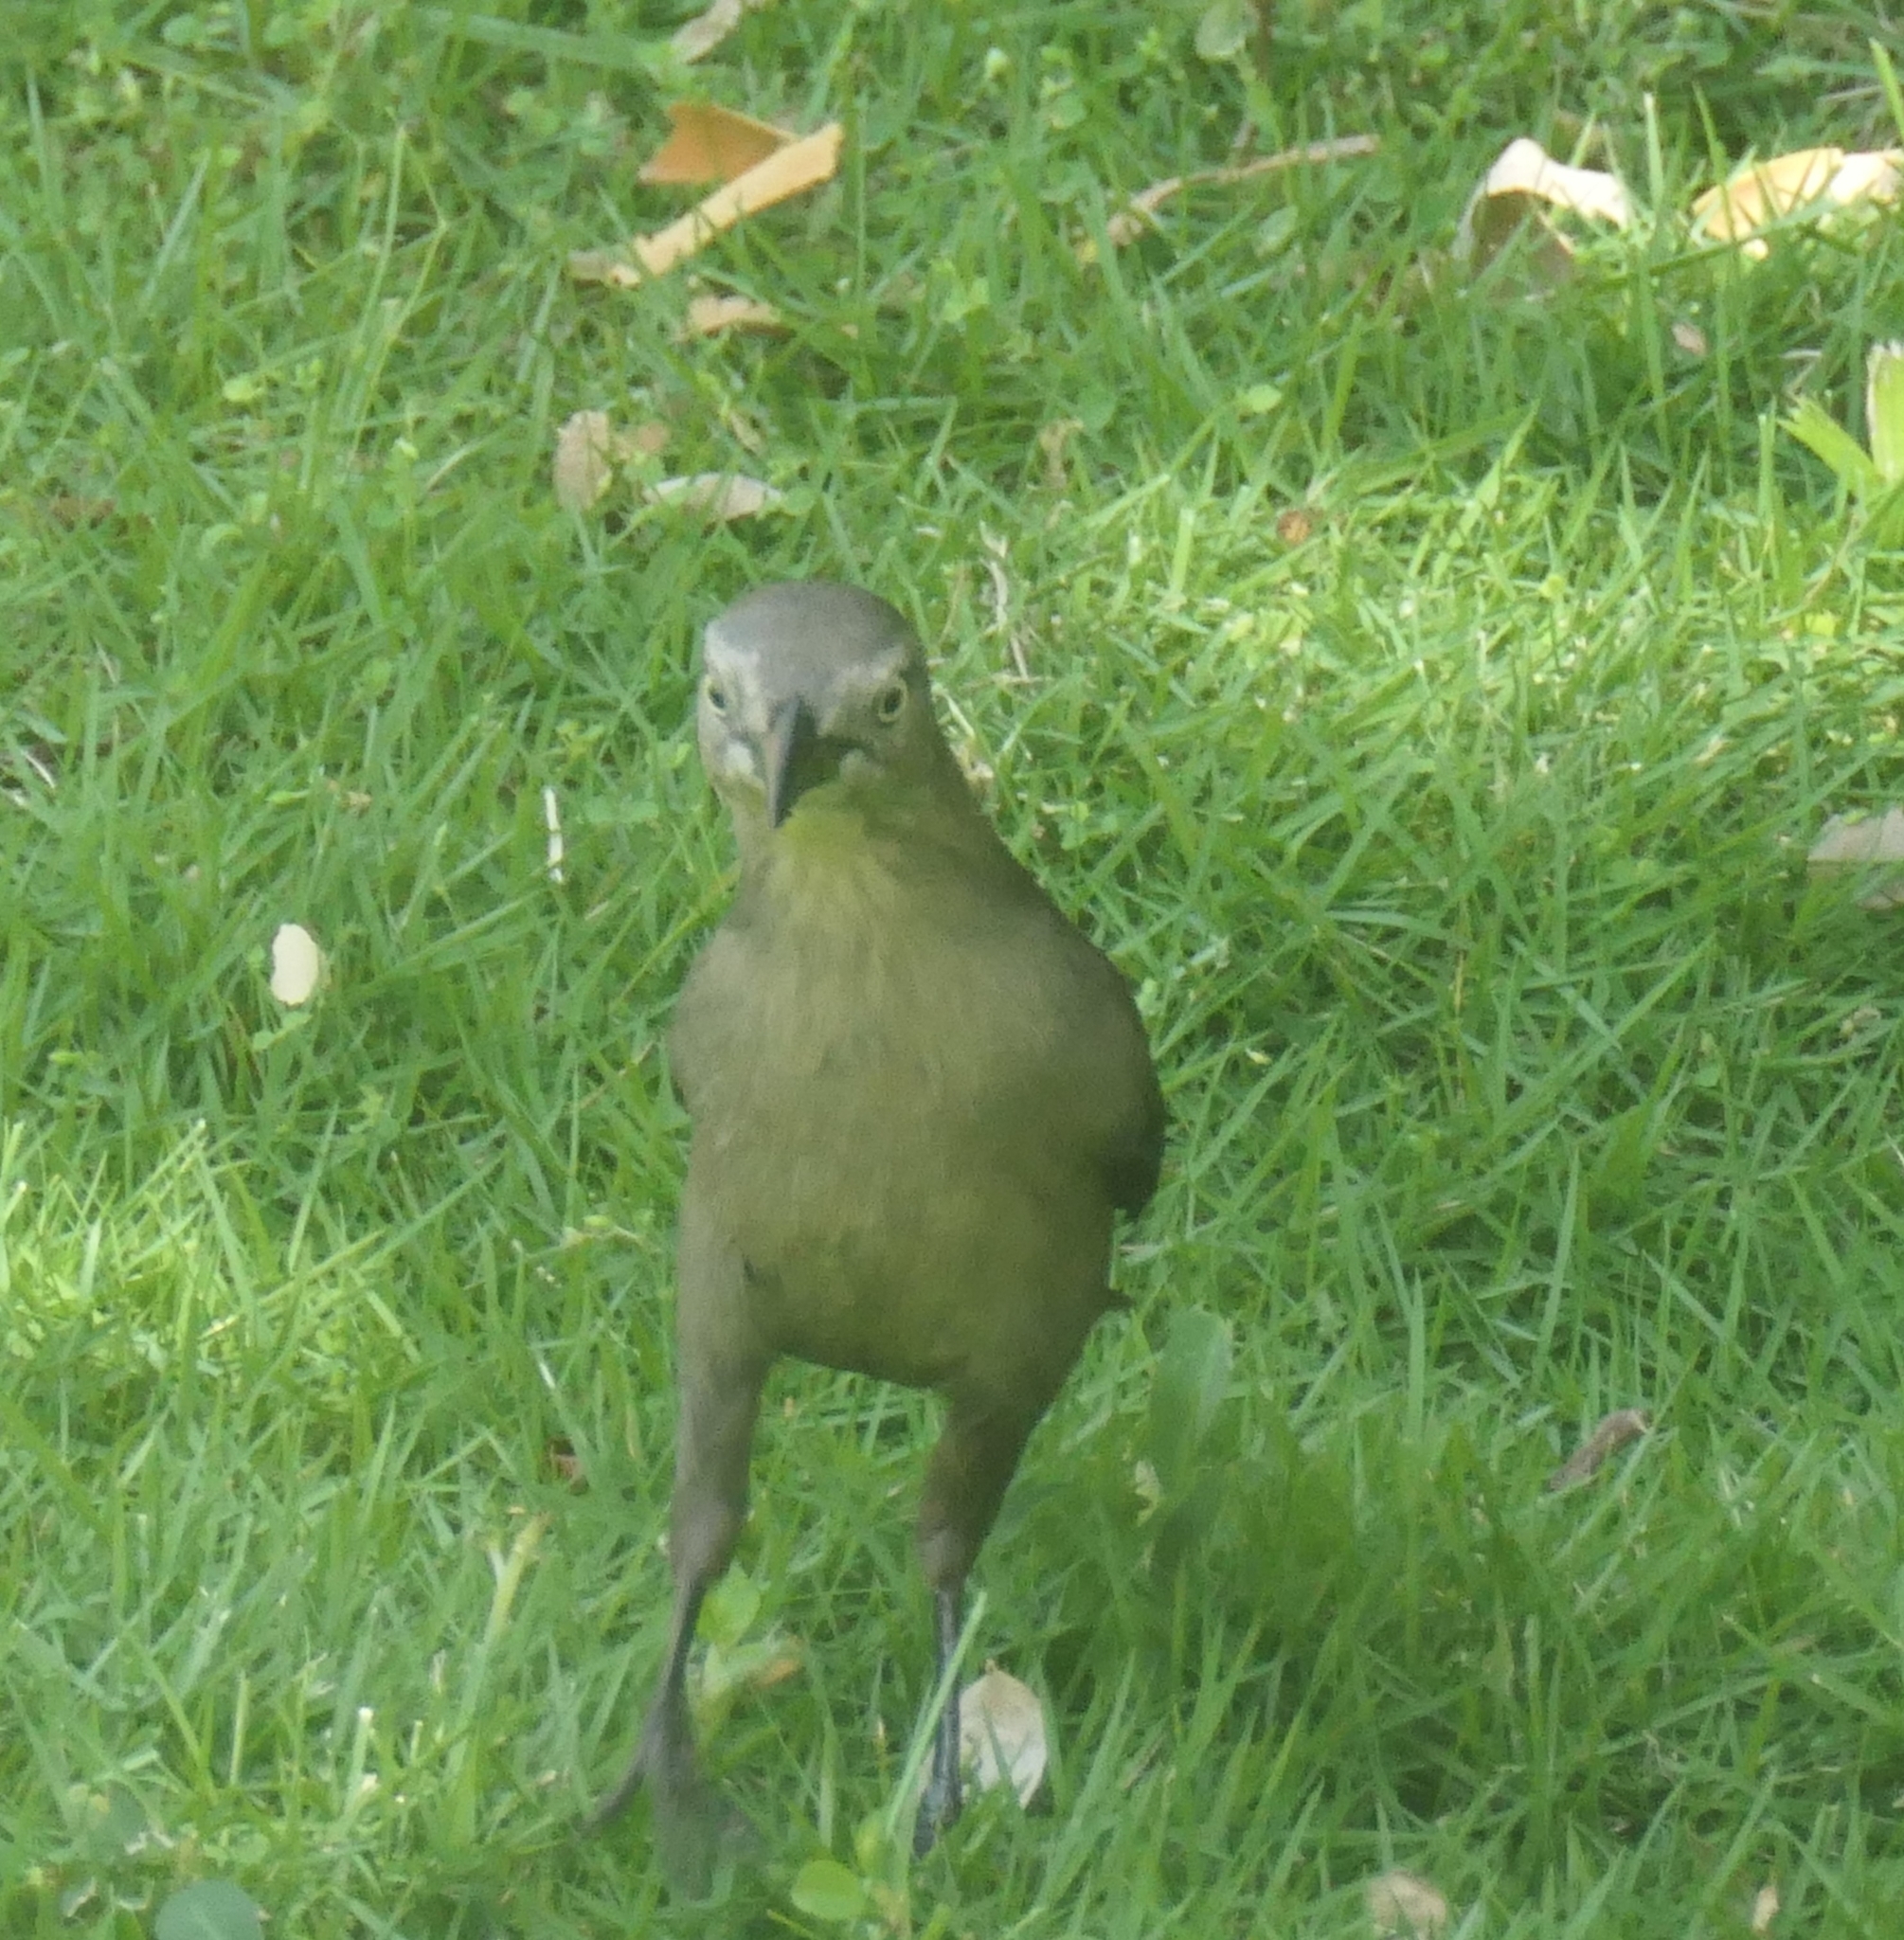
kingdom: Animalia
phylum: Chordata
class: Aves
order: Passeriformes
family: Icteridae
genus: Quiscalus
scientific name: Quiscalus lugubris
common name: Carib grackle
